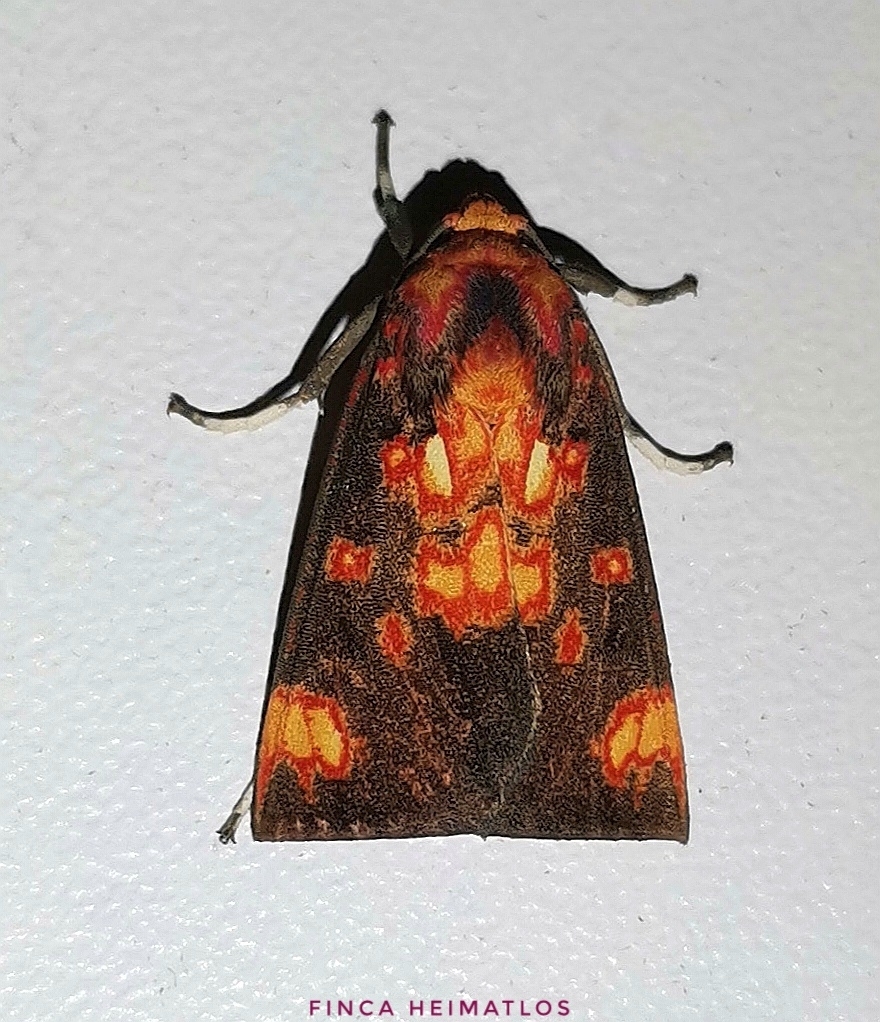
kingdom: Animalia
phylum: Arthropoda
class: Insecta
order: Lepidoptera
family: Erebidae
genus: Melese
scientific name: Melese nebulosa
